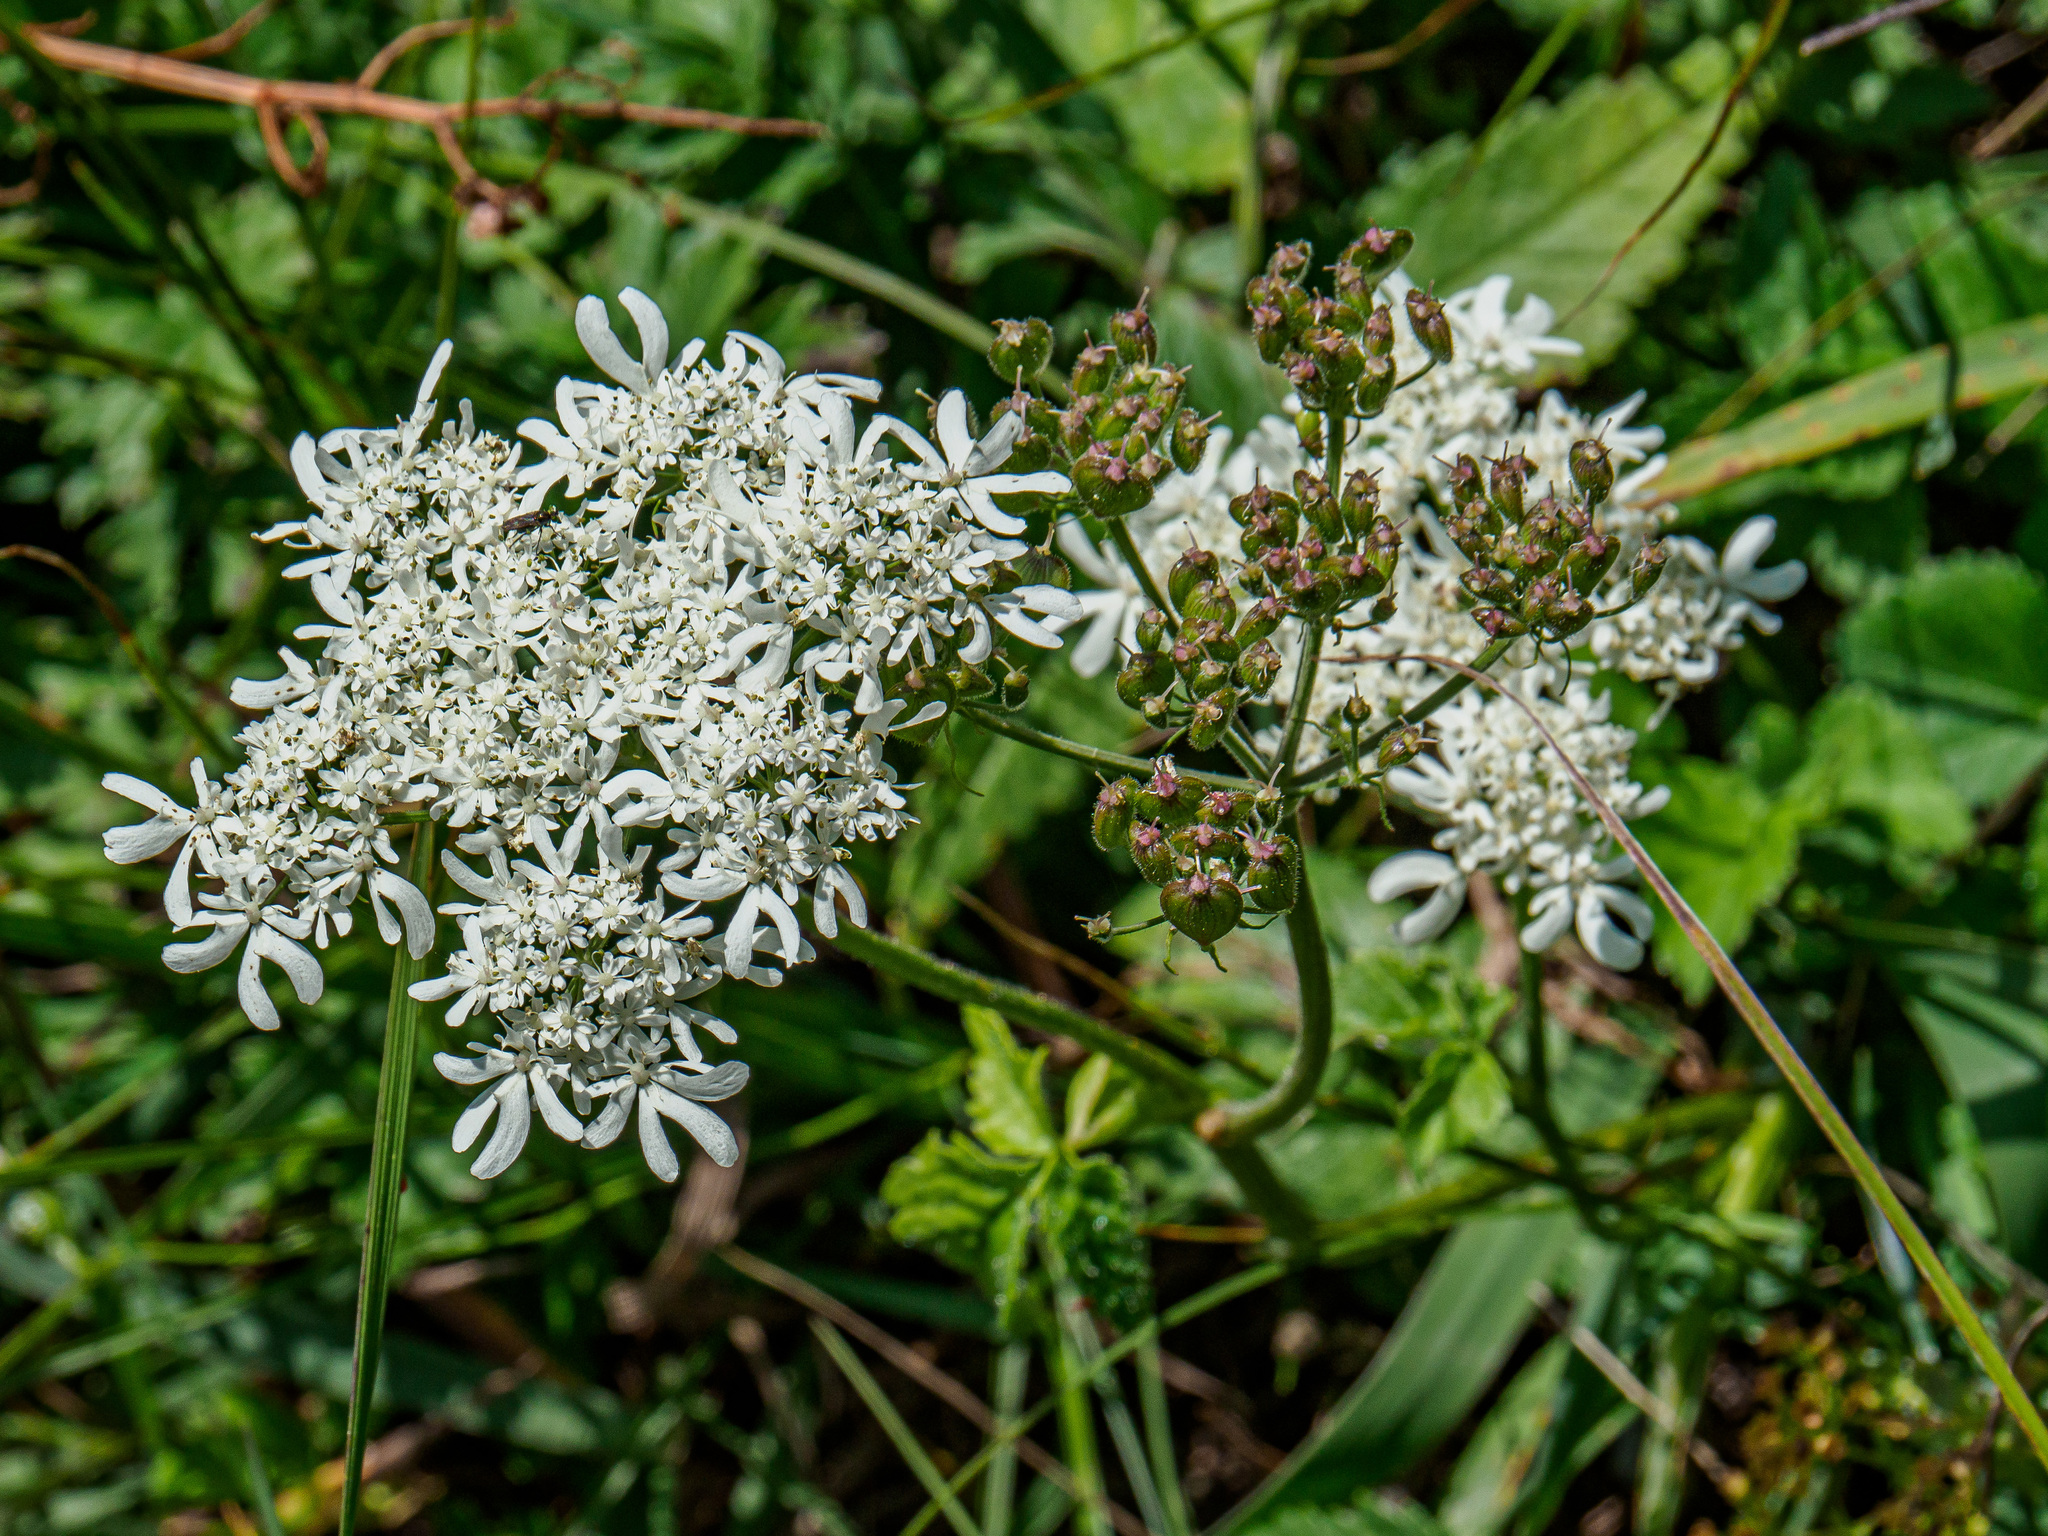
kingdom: Plantae
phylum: Tracheophyta
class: Magnoliopsida
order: Apiales
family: Apiaceae
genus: Heracleum
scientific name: Heracleum austriacum
